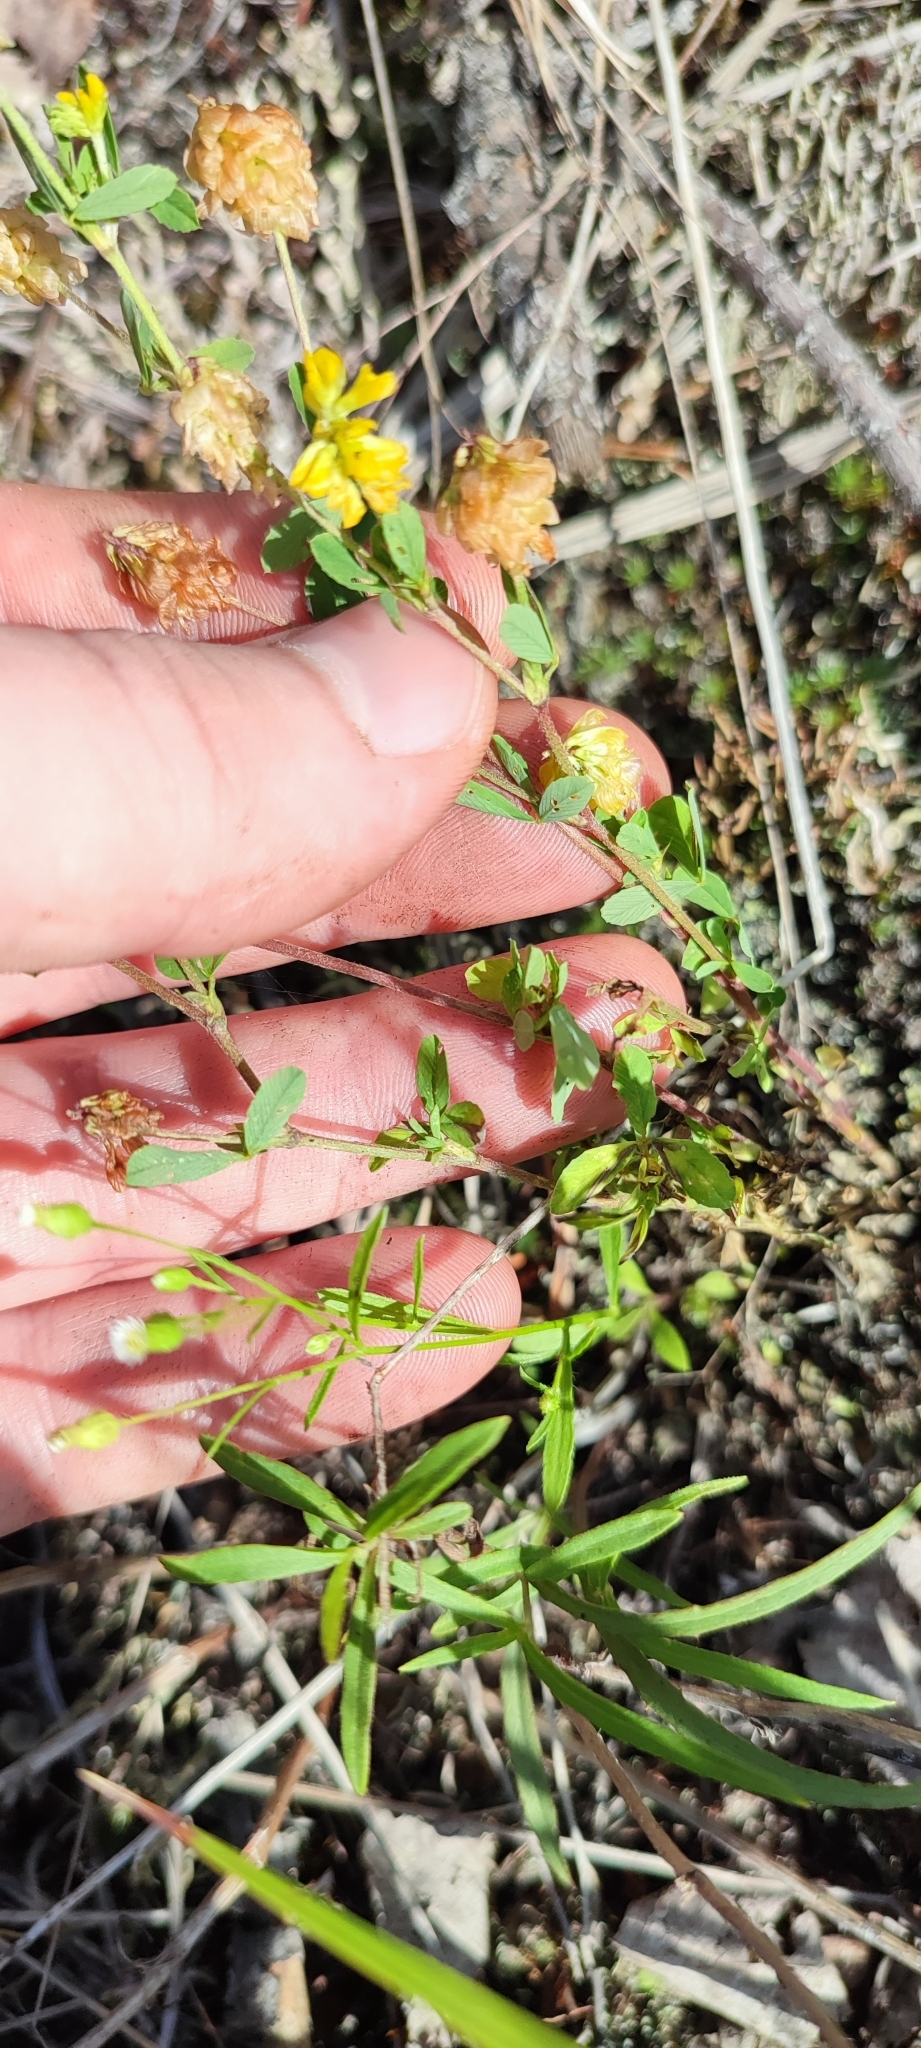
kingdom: Plantae
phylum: Tracheophyta
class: Magnoliopsida
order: Fabales
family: Fabaceae
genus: Trifolium
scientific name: Trifolium aureum
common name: Golden clover
